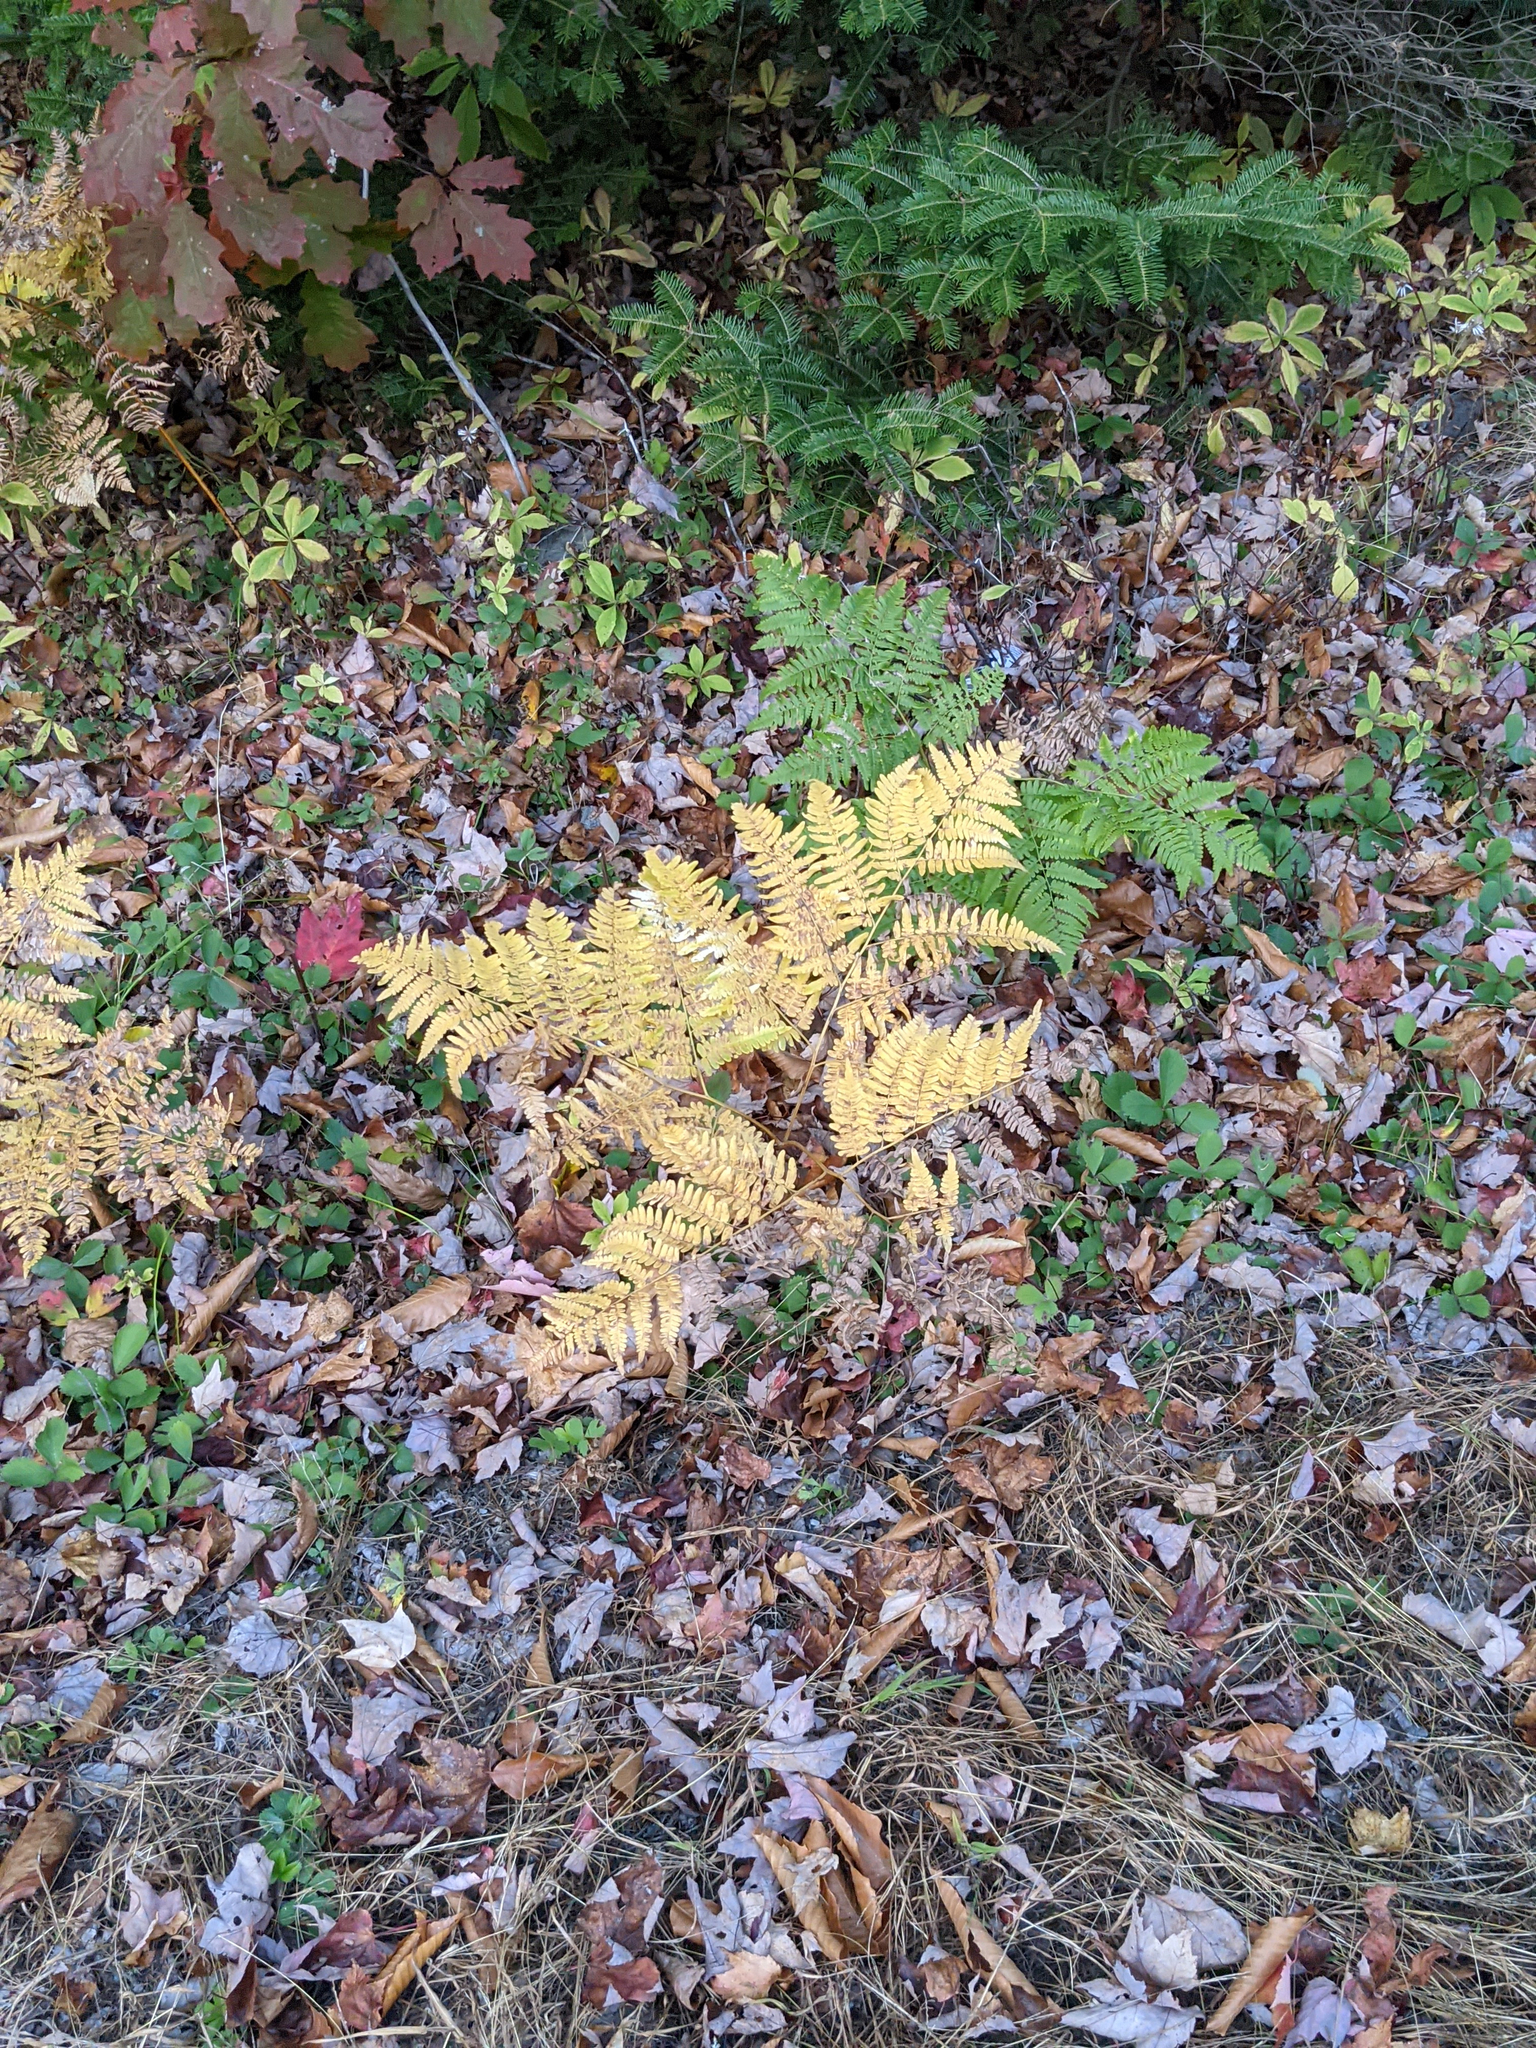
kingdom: Plantae
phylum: Tracheophyta
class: Polypodiopsida
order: Polypodiales
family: Dennstaedtiaceae
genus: Pteridium
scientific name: Pteridium aquilinum
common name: Bracken
